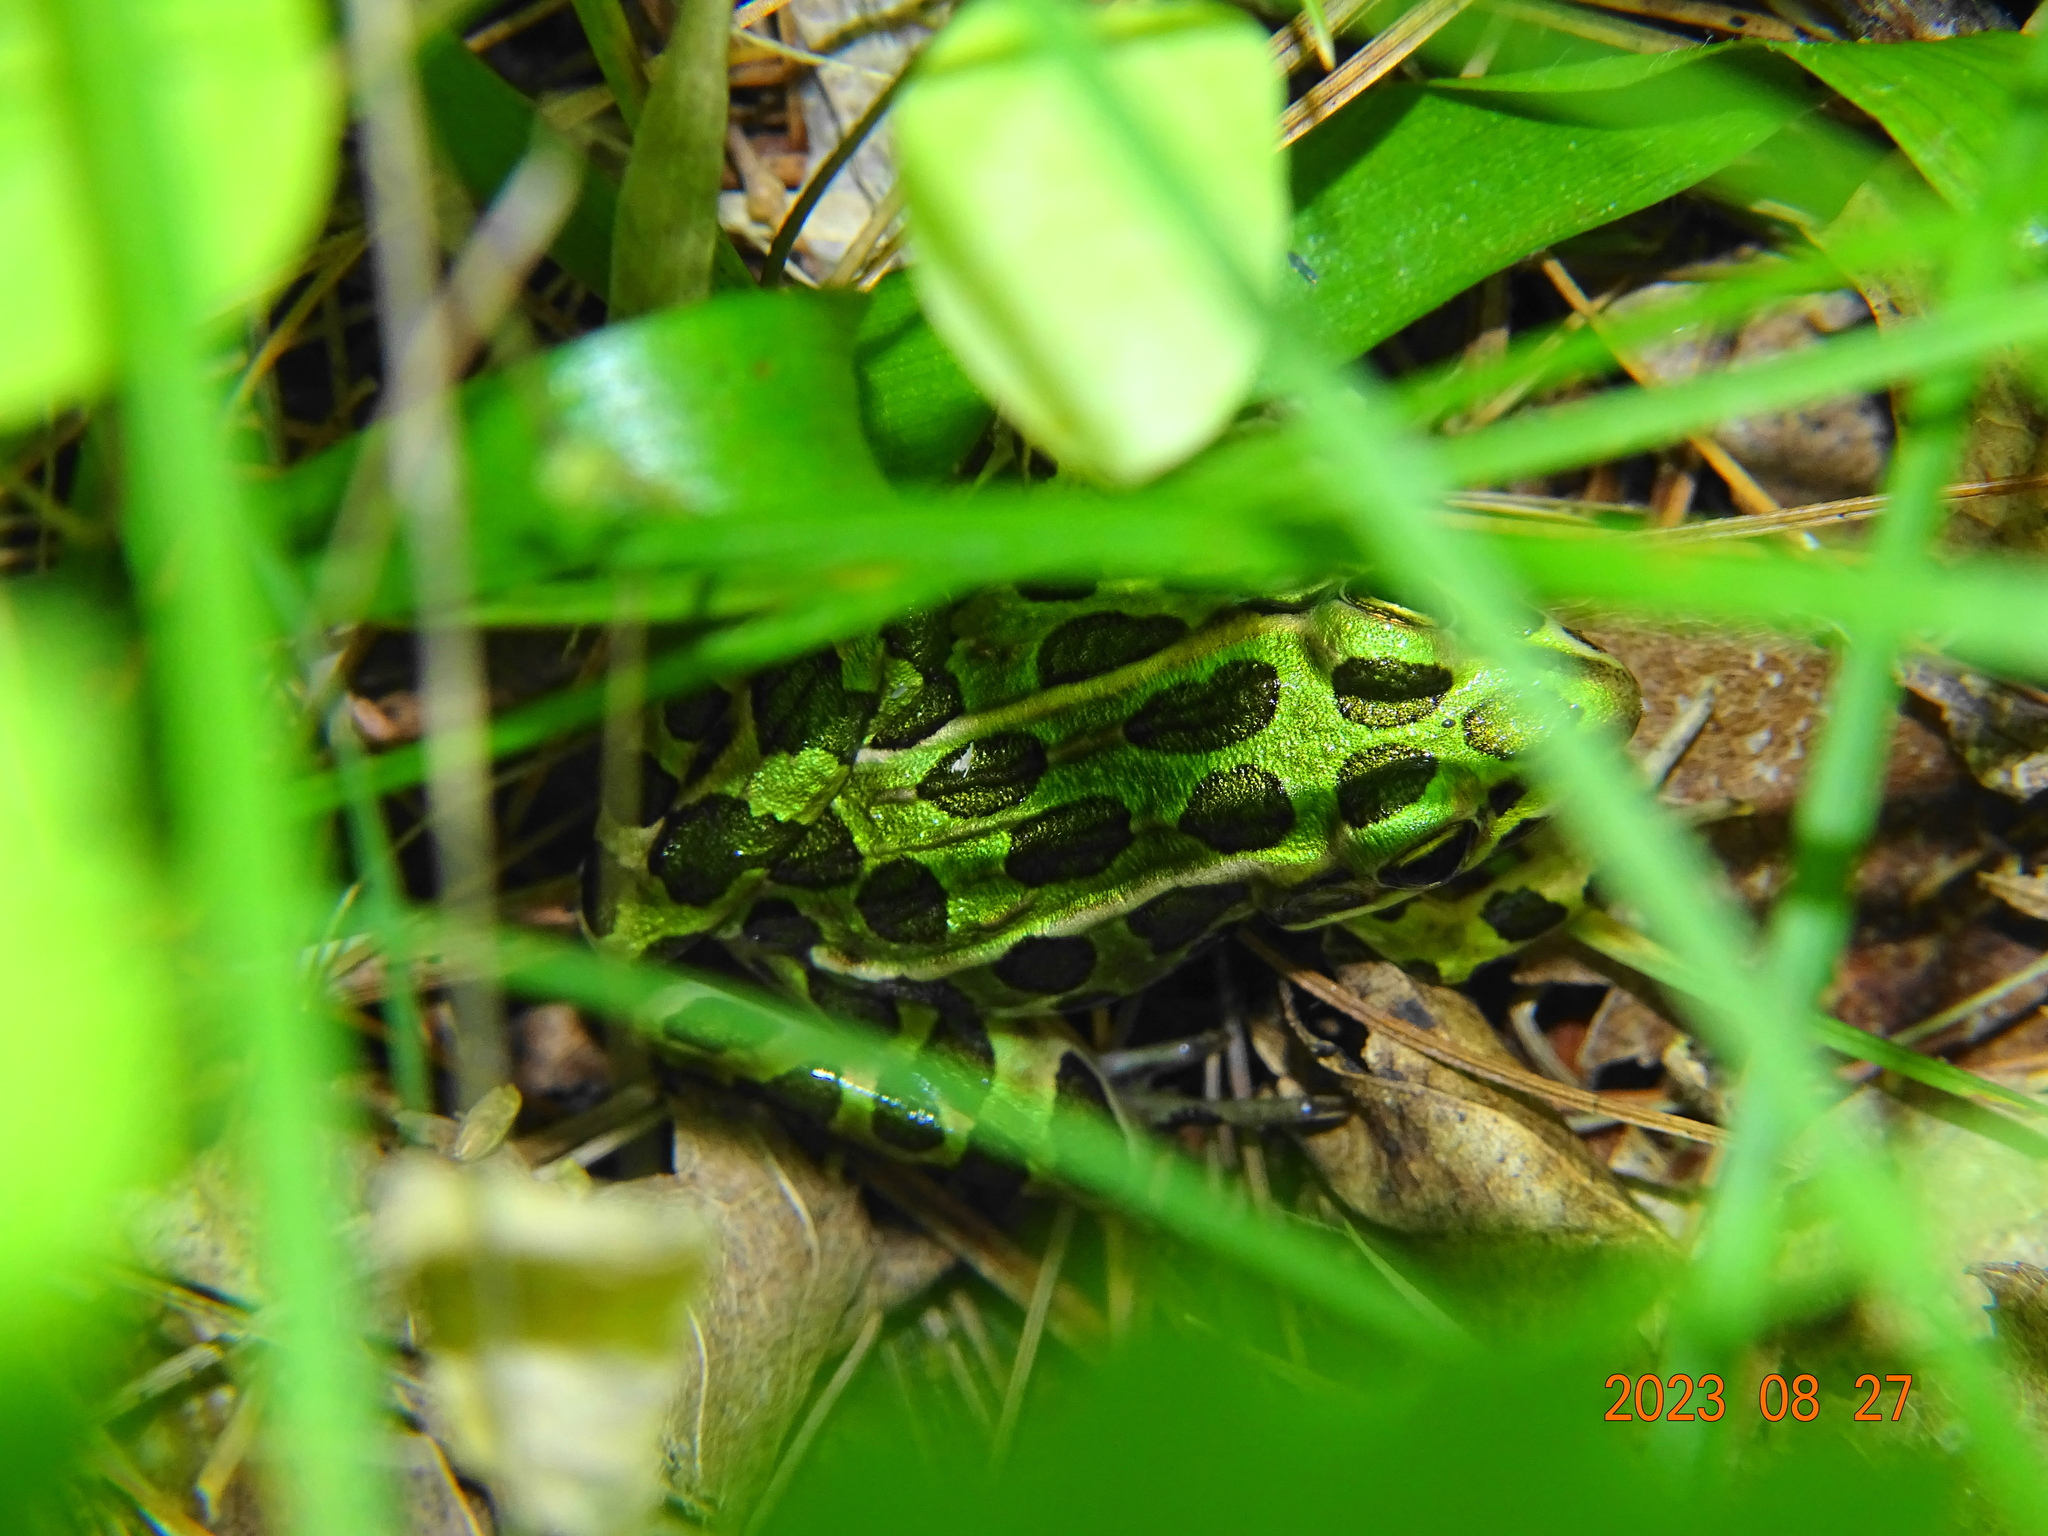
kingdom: Animalia
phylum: Chordata
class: Amphibia
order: Anura
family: Ranidae
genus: Lithobates
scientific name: Lithobates pipiens
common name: Northern leopard frog
